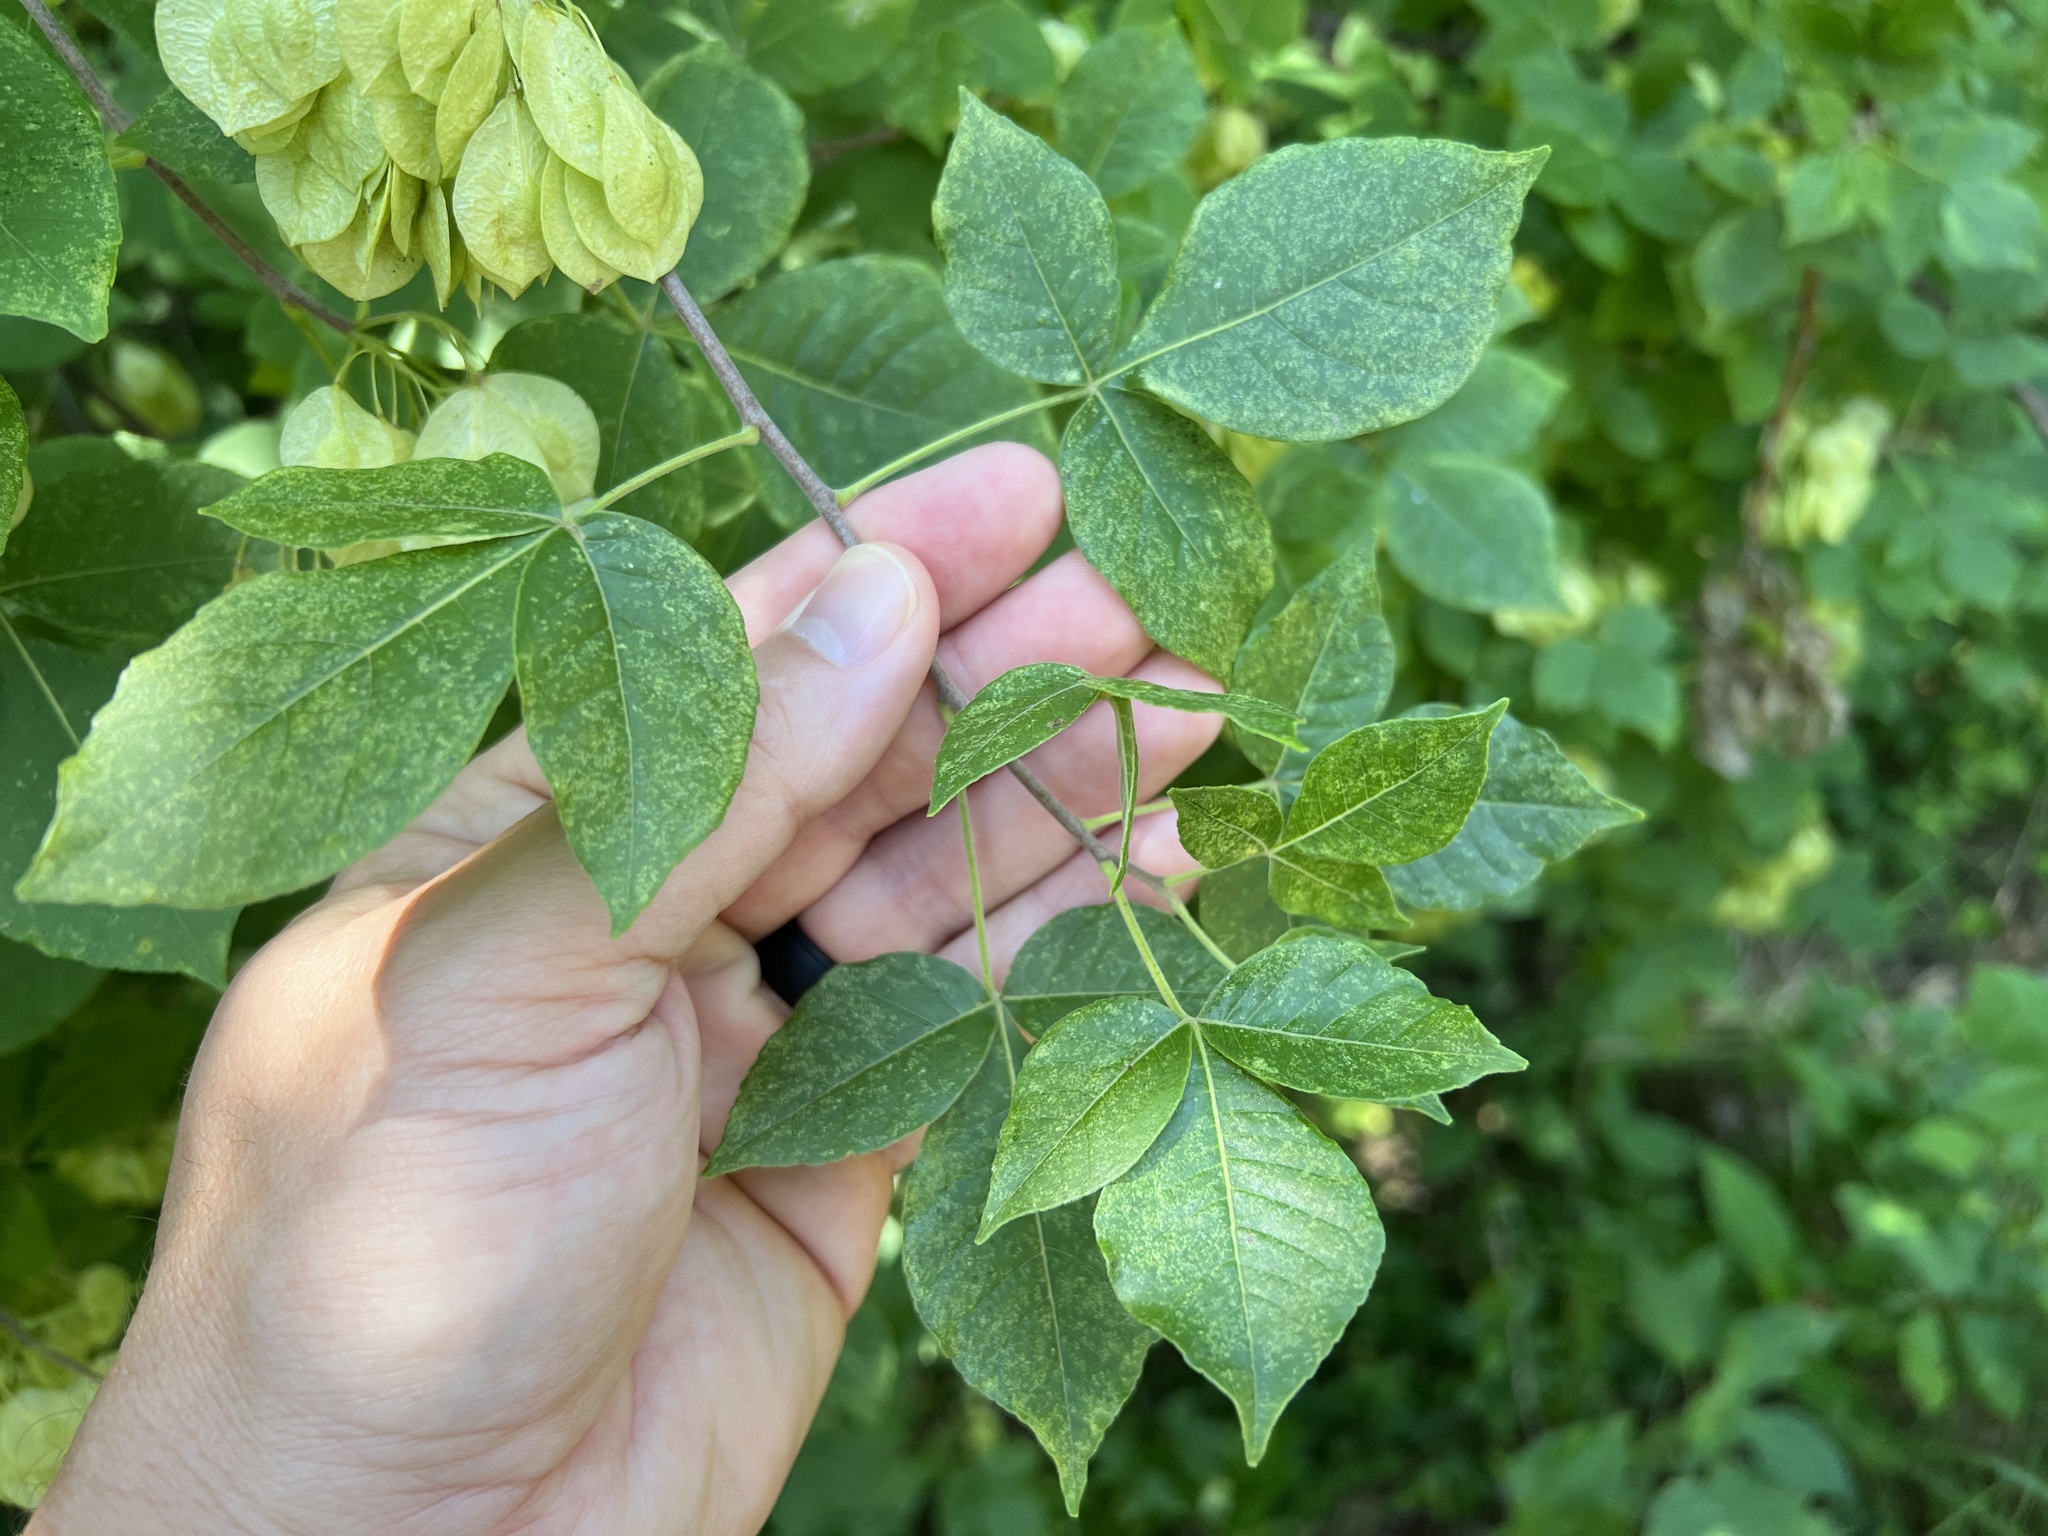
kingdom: Plantae
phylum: Tracheophyta
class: Magnoliopsida
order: Sapindales
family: Rutaceae
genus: Ptelea
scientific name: Ptelea trifoliata
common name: Common hop-tree
